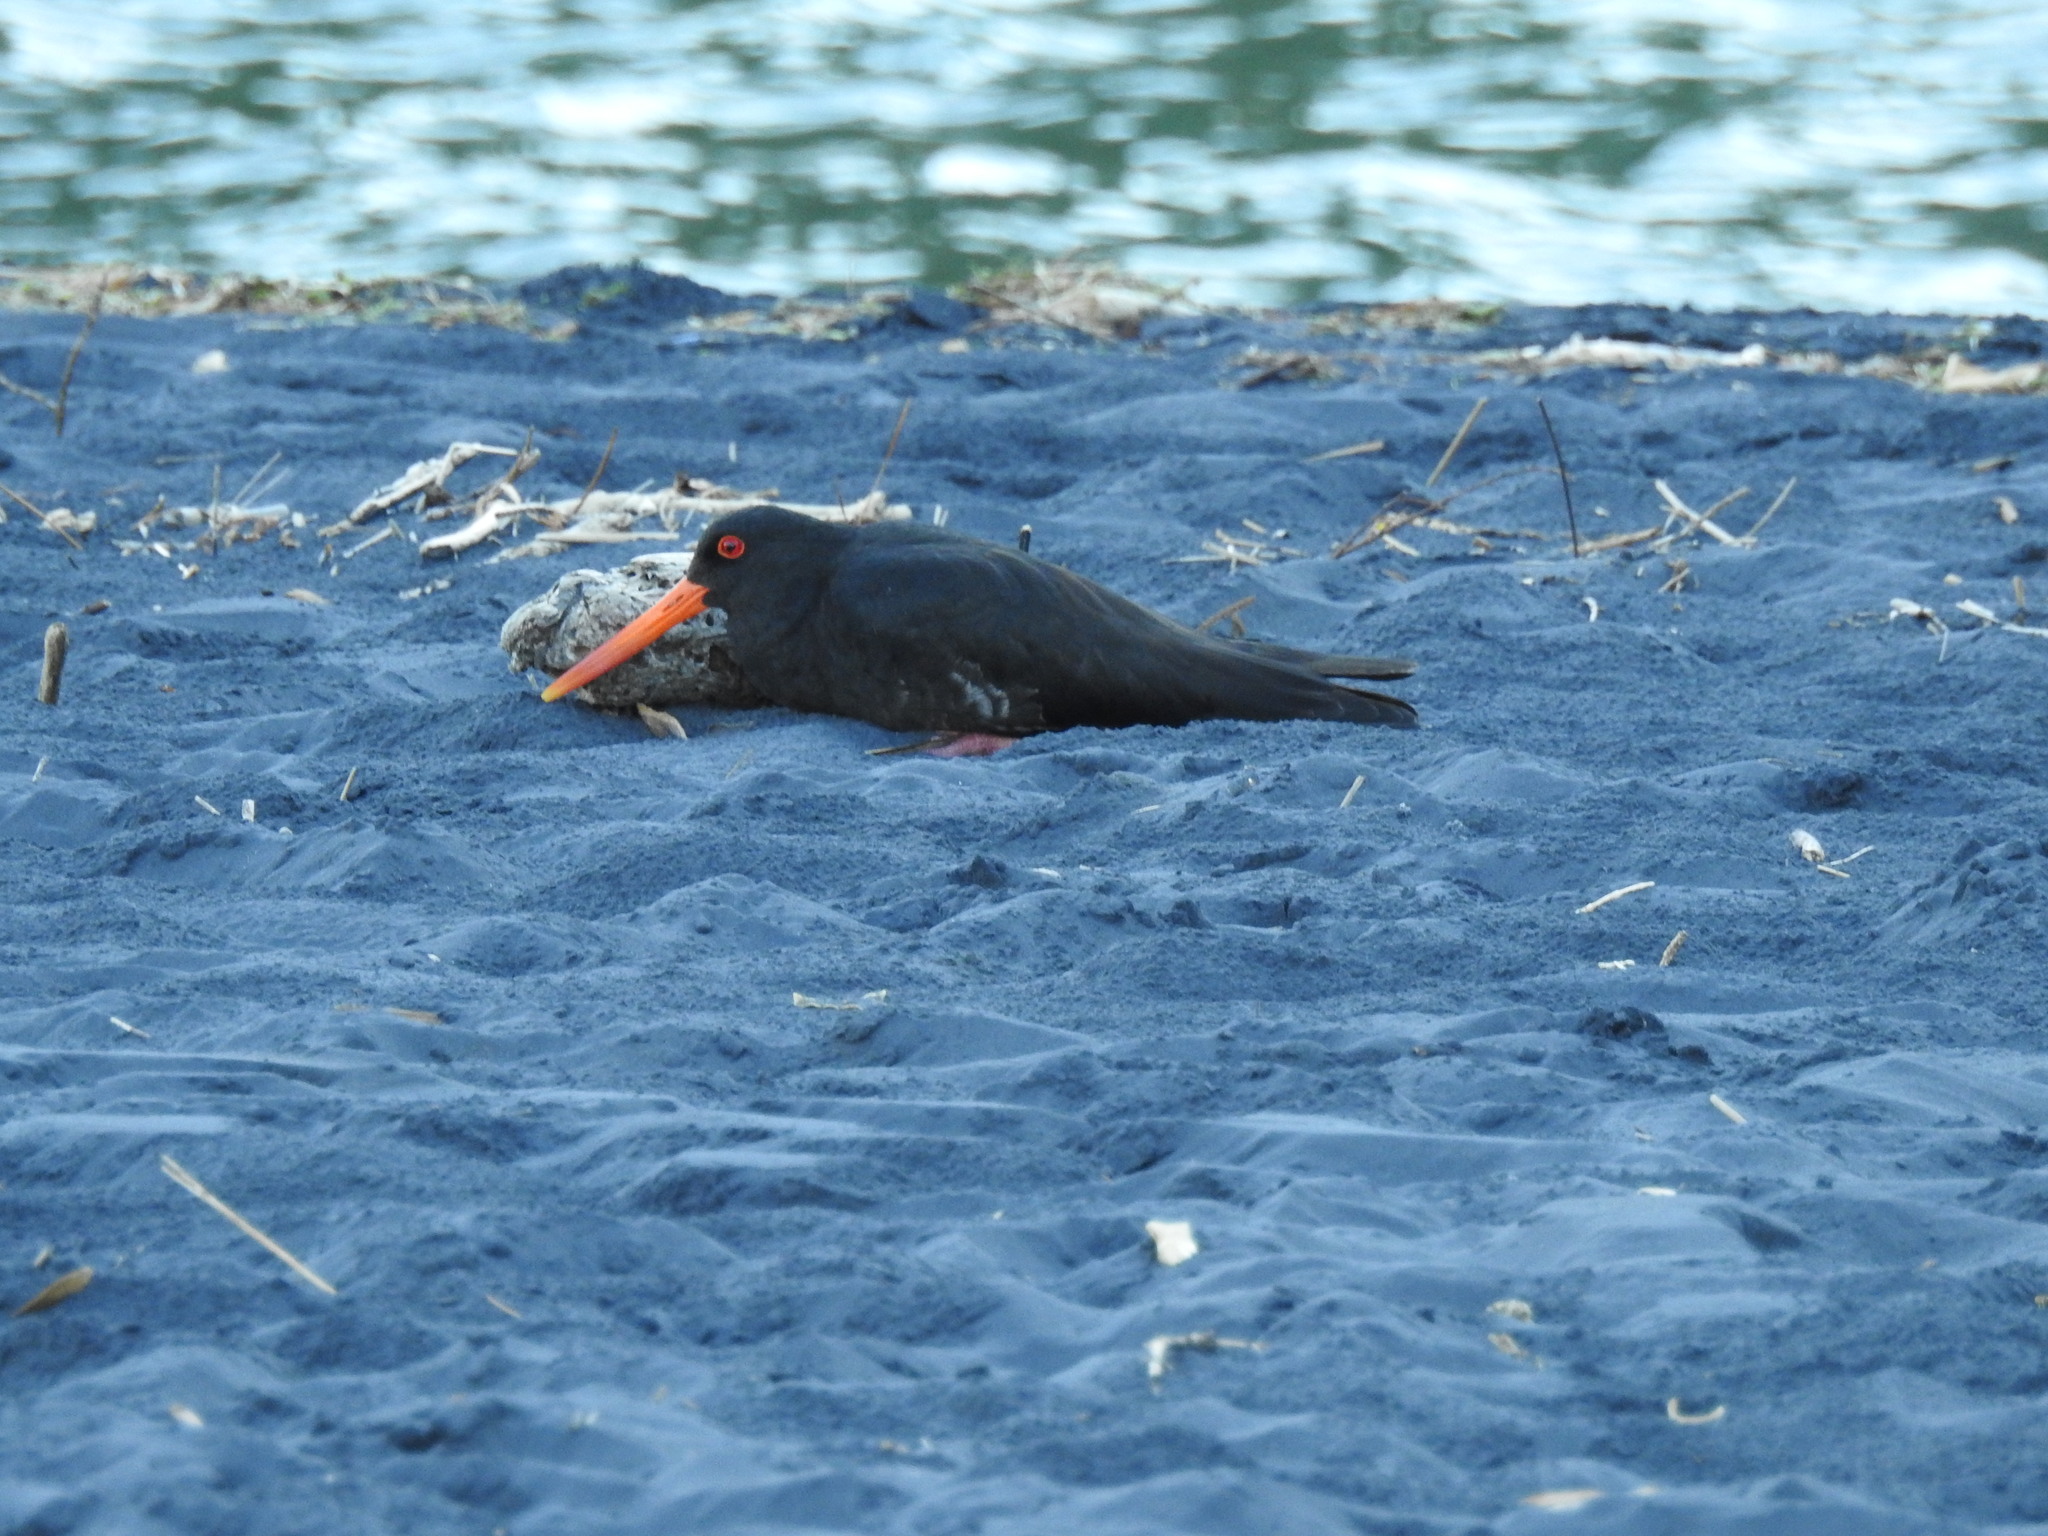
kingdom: Animalia
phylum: Chordata
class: Aves
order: Charadriiformes
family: Haematopodidae
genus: Haematopus
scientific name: Haematopus unicolor
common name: Variable oystercatcher
